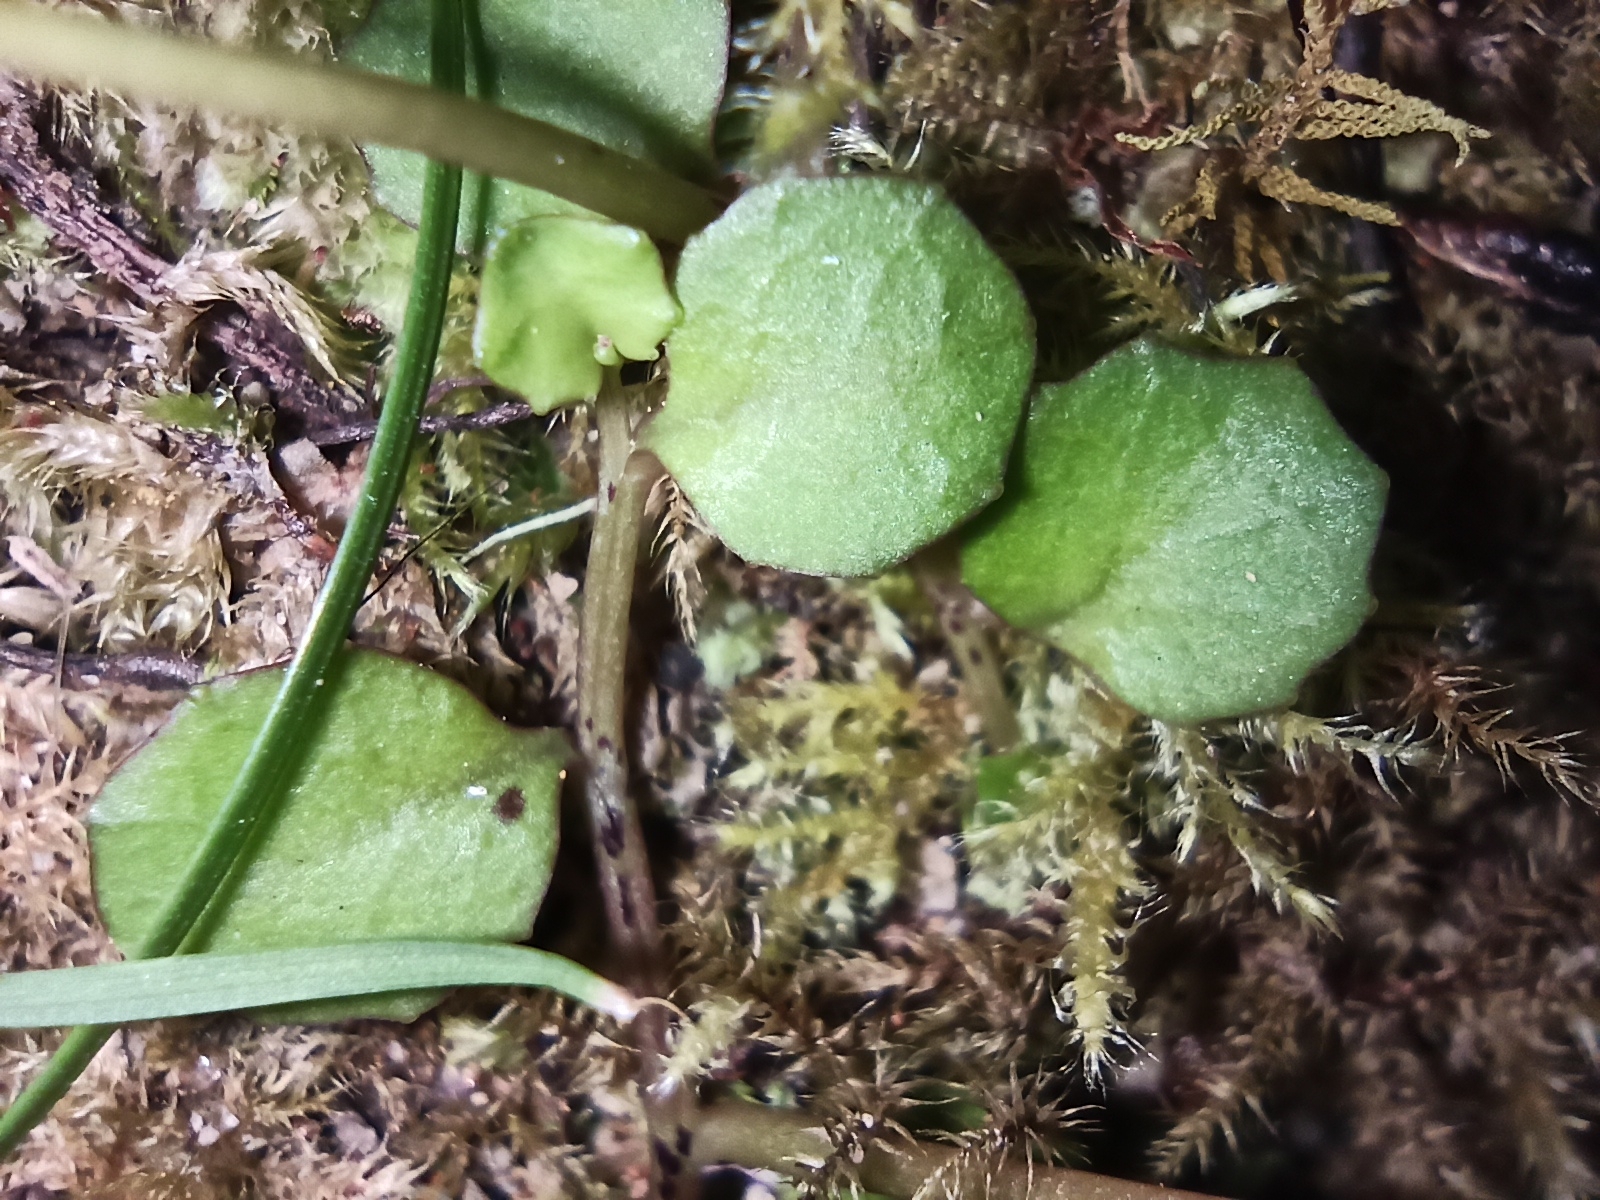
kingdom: Plantae
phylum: Tracheophyta
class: Magnoliopsida
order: Asterales
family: Campanulaceae
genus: Lobelia
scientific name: Lobelia angulata
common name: Lawn lobelia
